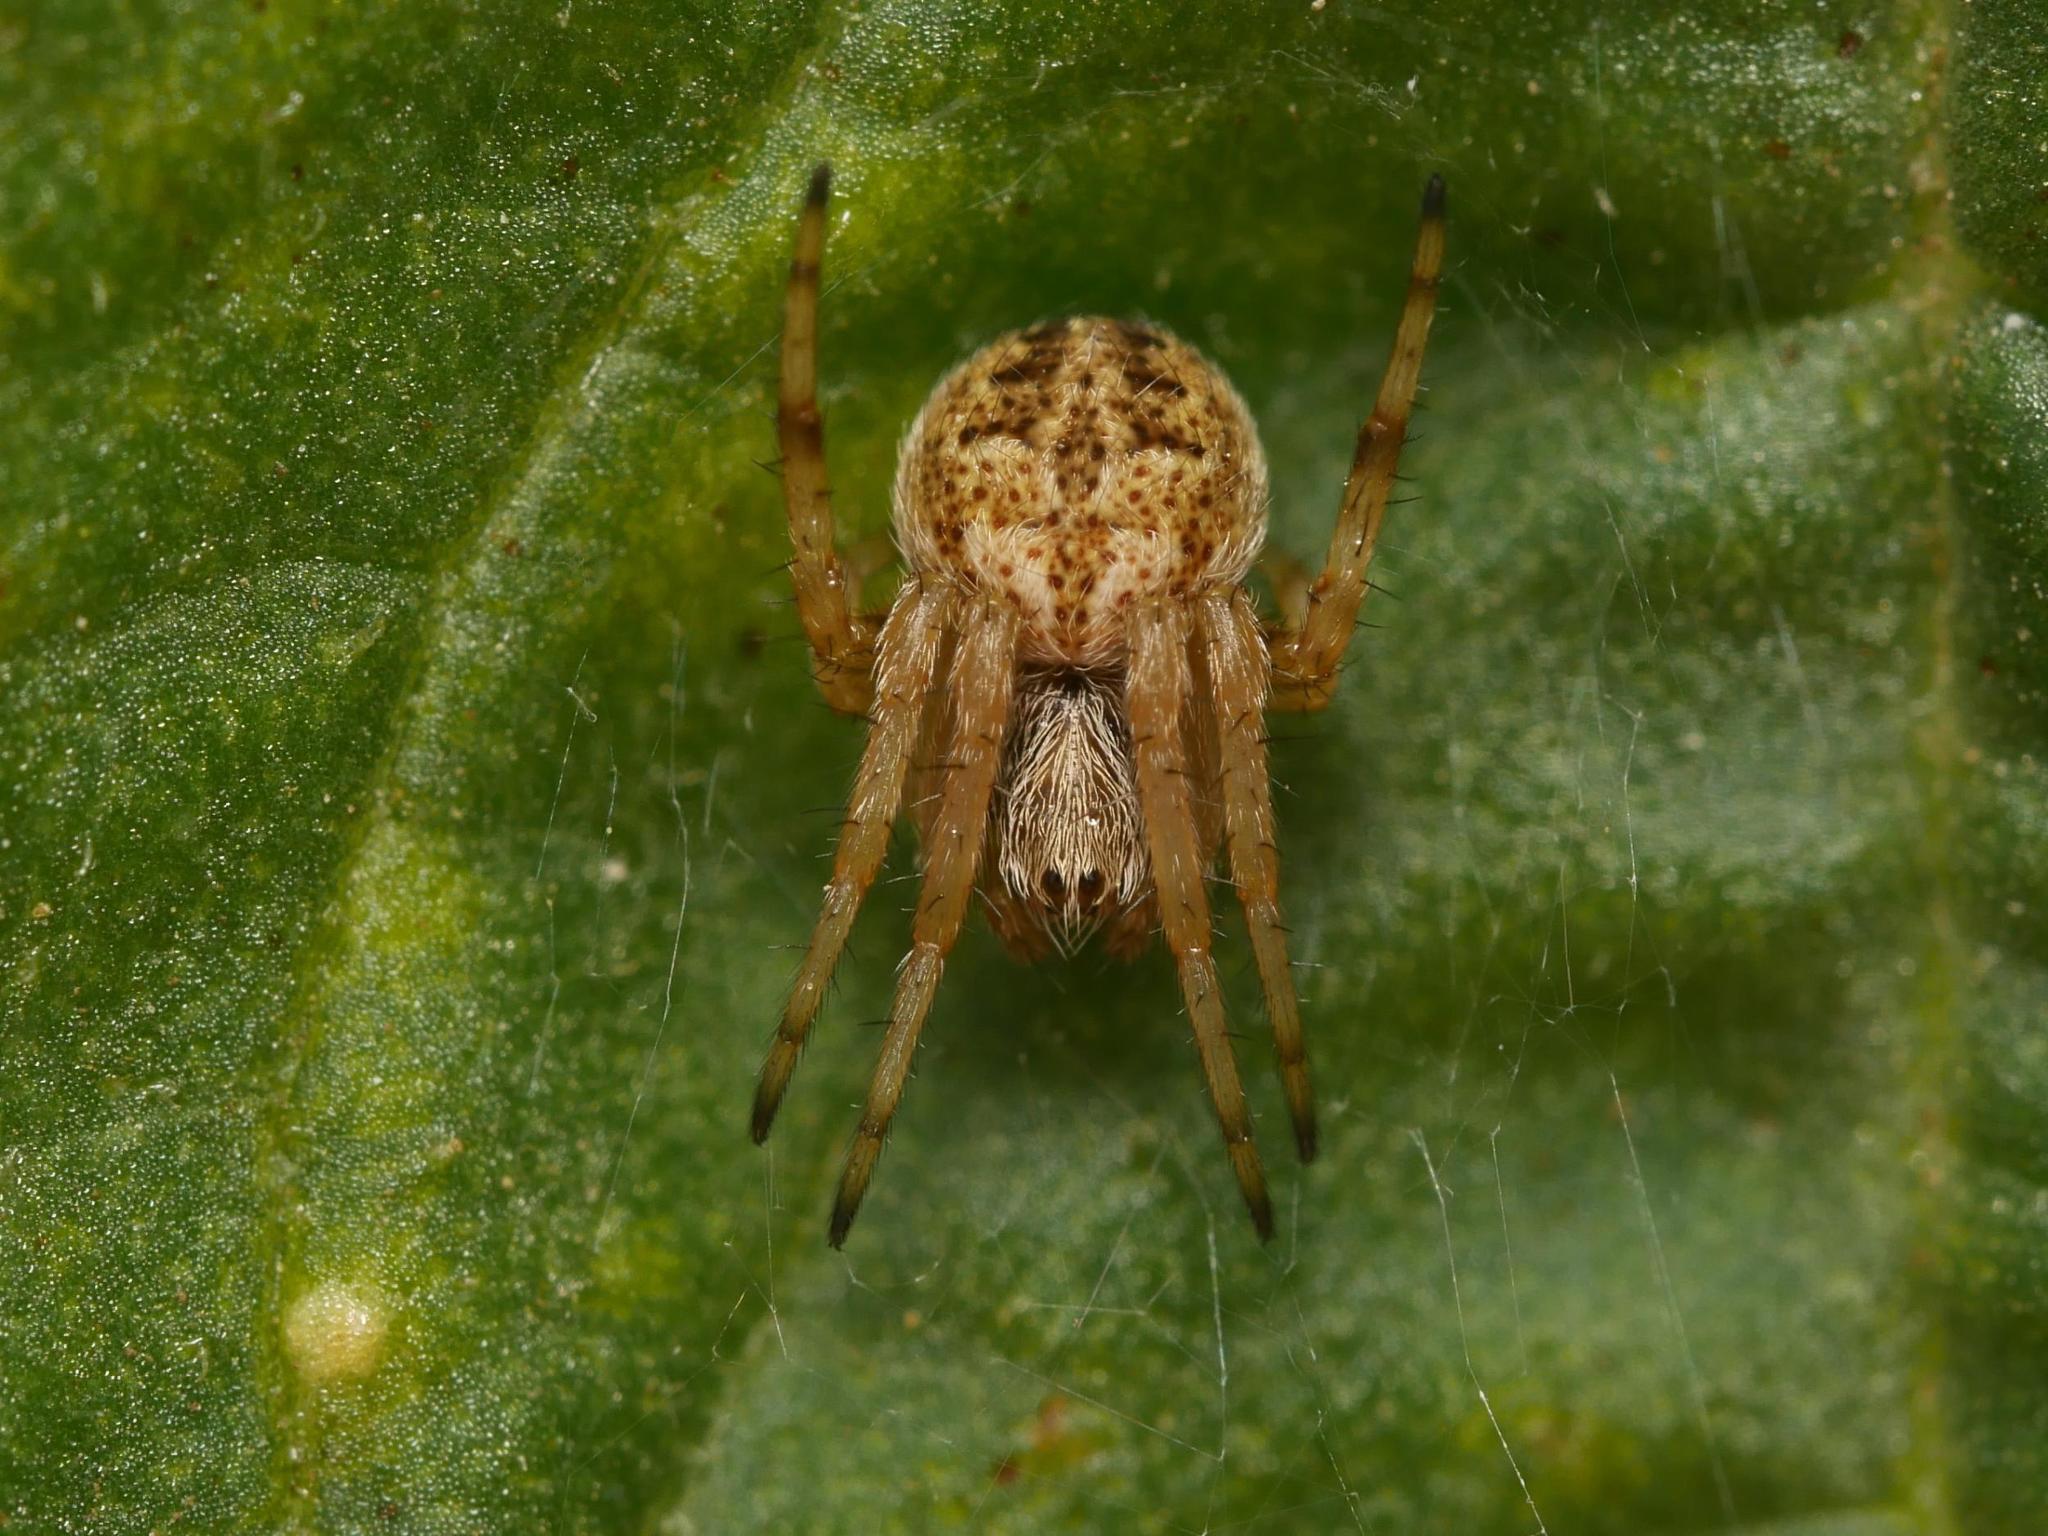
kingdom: Animalia
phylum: Arthropoda
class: Arachnida
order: Araneae
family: Araneidae
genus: Agalenatea
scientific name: Agalenatea redii
